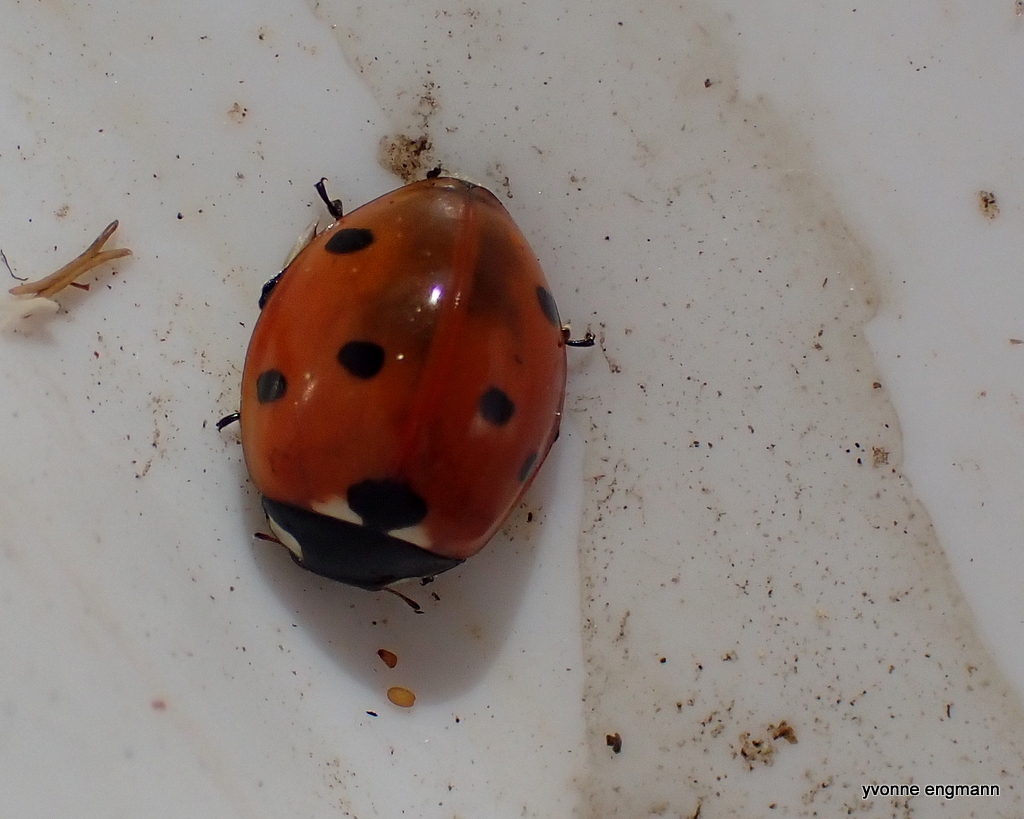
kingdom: Animalia
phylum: Arthropoda
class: Insecta
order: Coleoptera
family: Coccinellidae
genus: Coccinella
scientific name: Coccinella septempunctata
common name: Sevenspotted lady beetle
